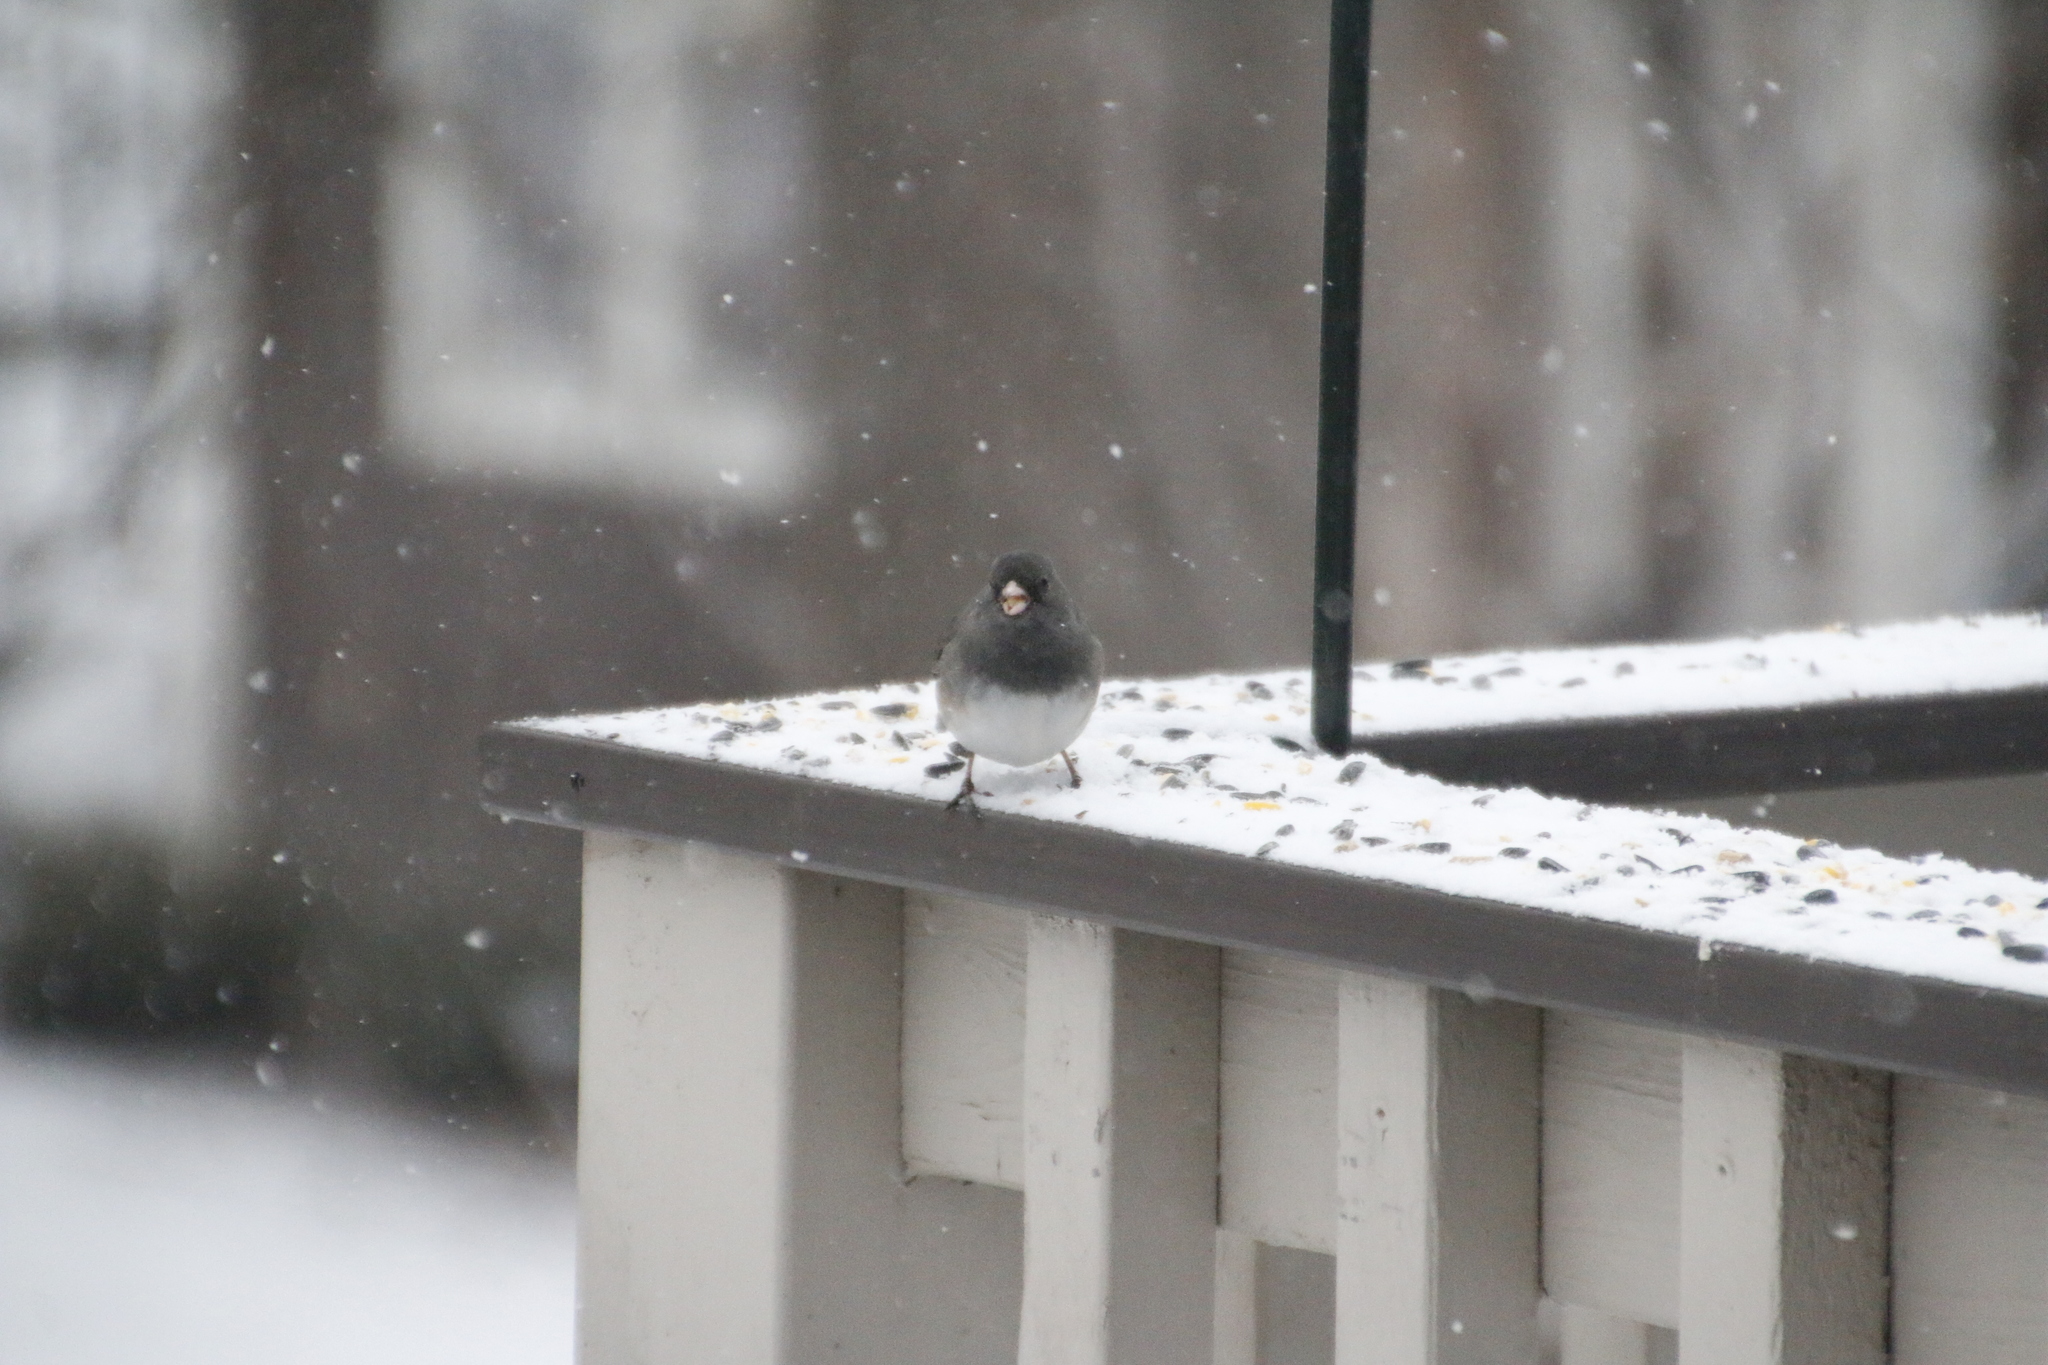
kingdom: Animalia
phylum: Chordata
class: Aves
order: Passeriformes
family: Passerellidae
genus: Junco
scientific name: Junco hyemalis
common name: Dark-eyed junco
